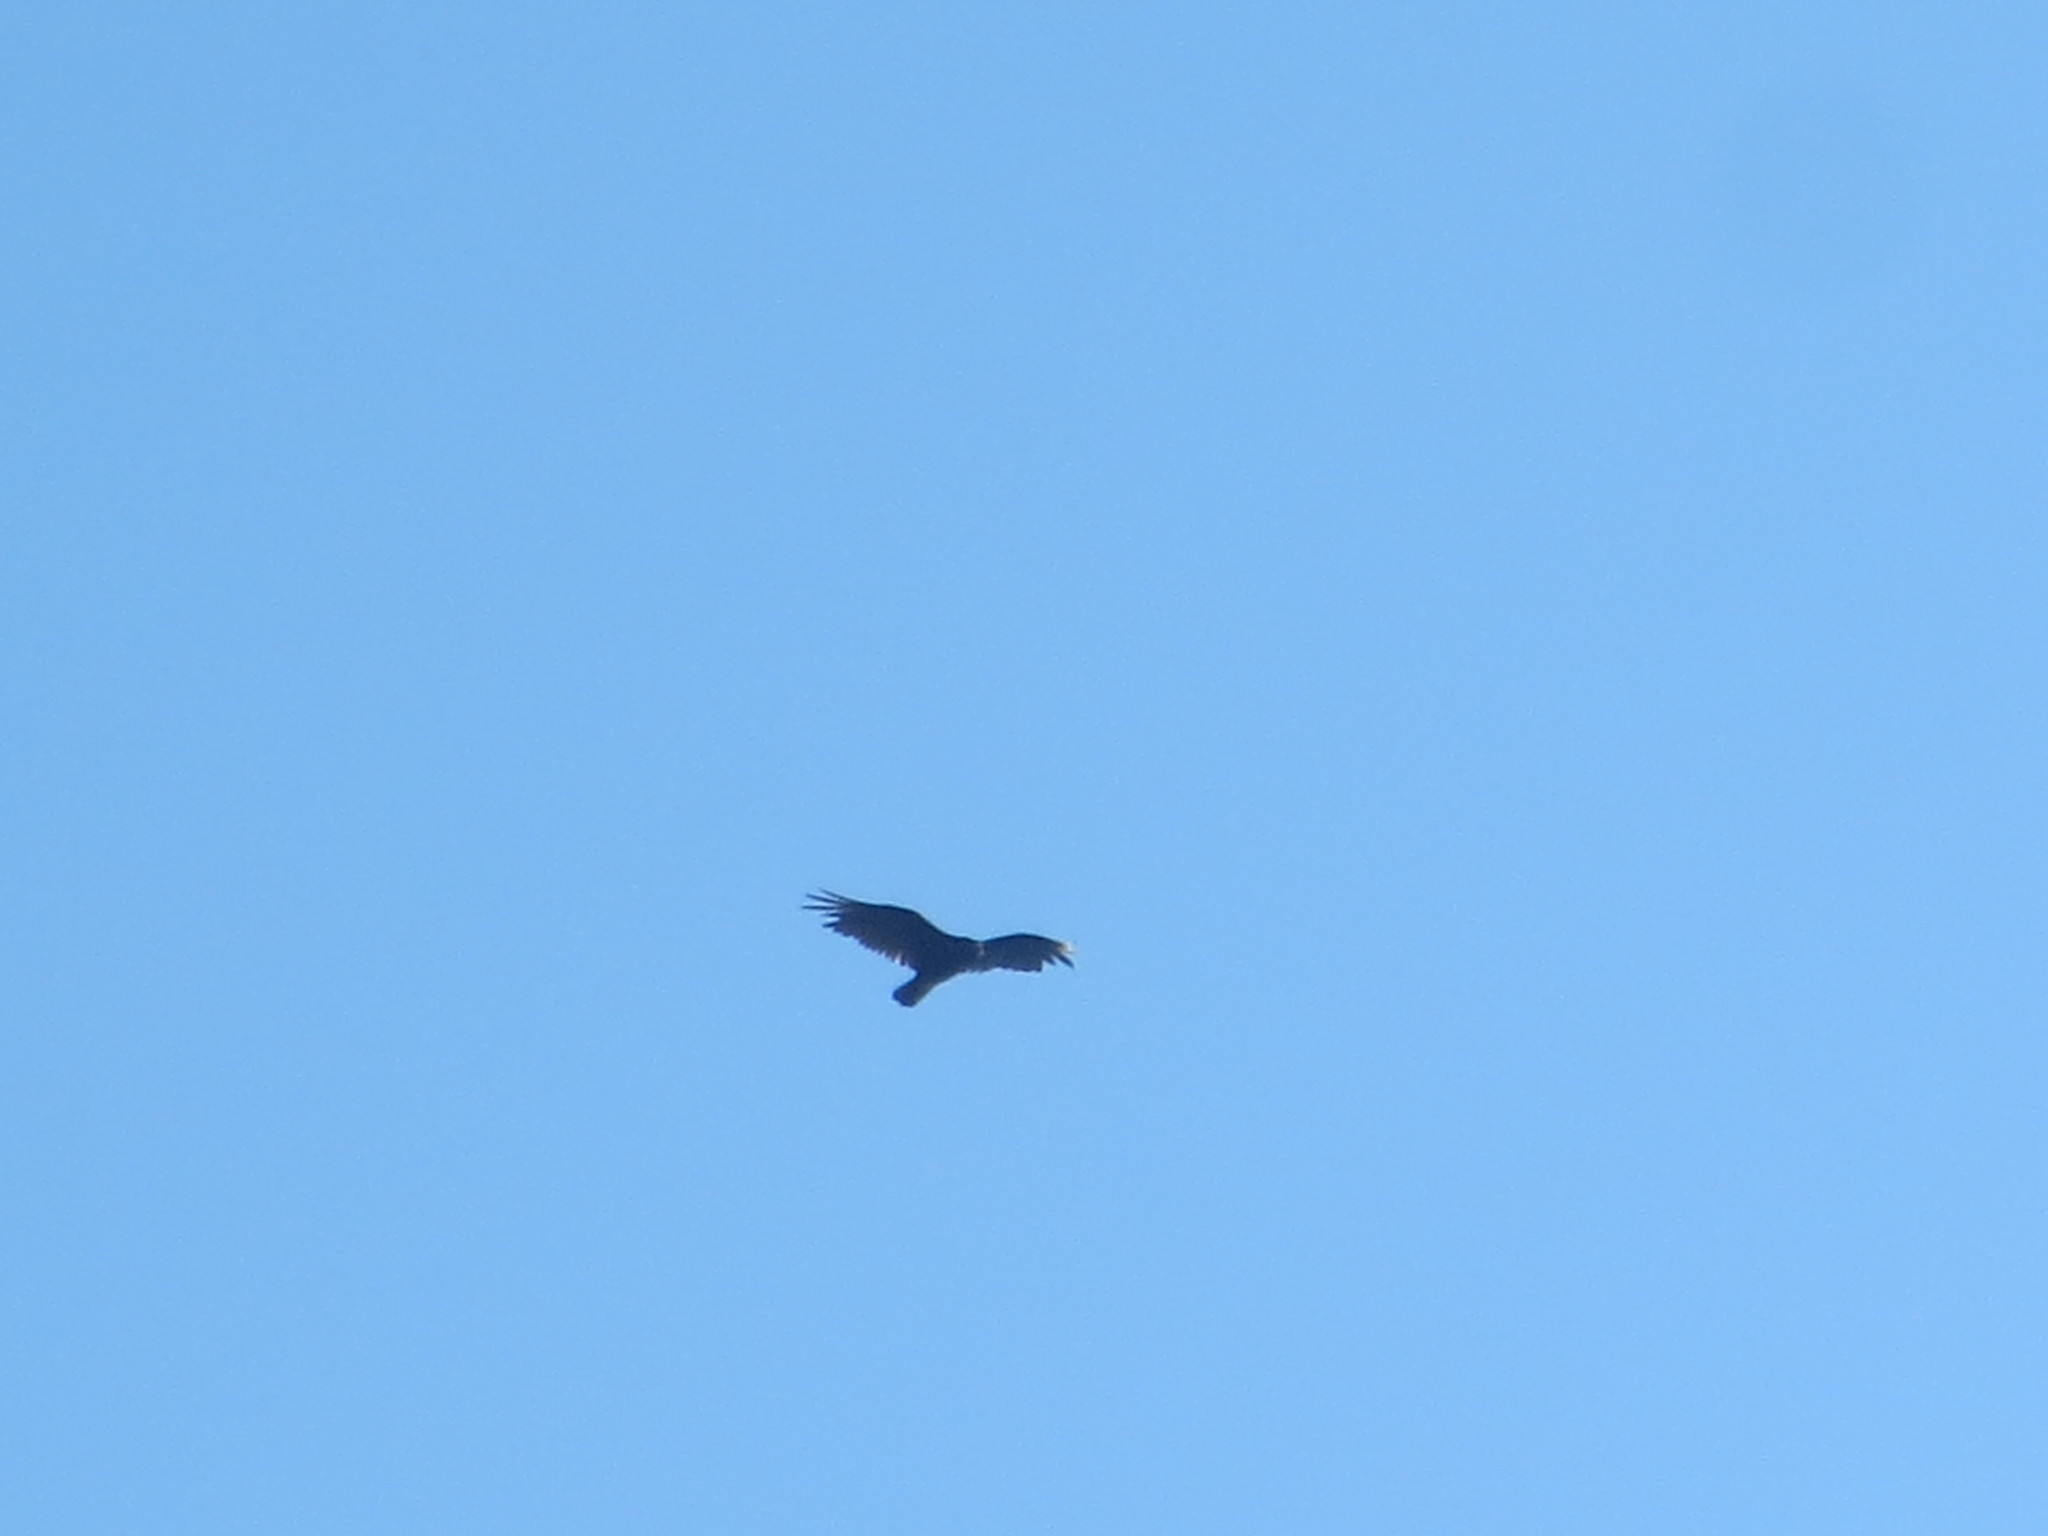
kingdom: Animalia
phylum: Chordata
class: Aves
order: Accipitriformes
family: Cathartidae
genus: Cathartes
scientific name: Cathartes aura
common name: Turkey vulture
